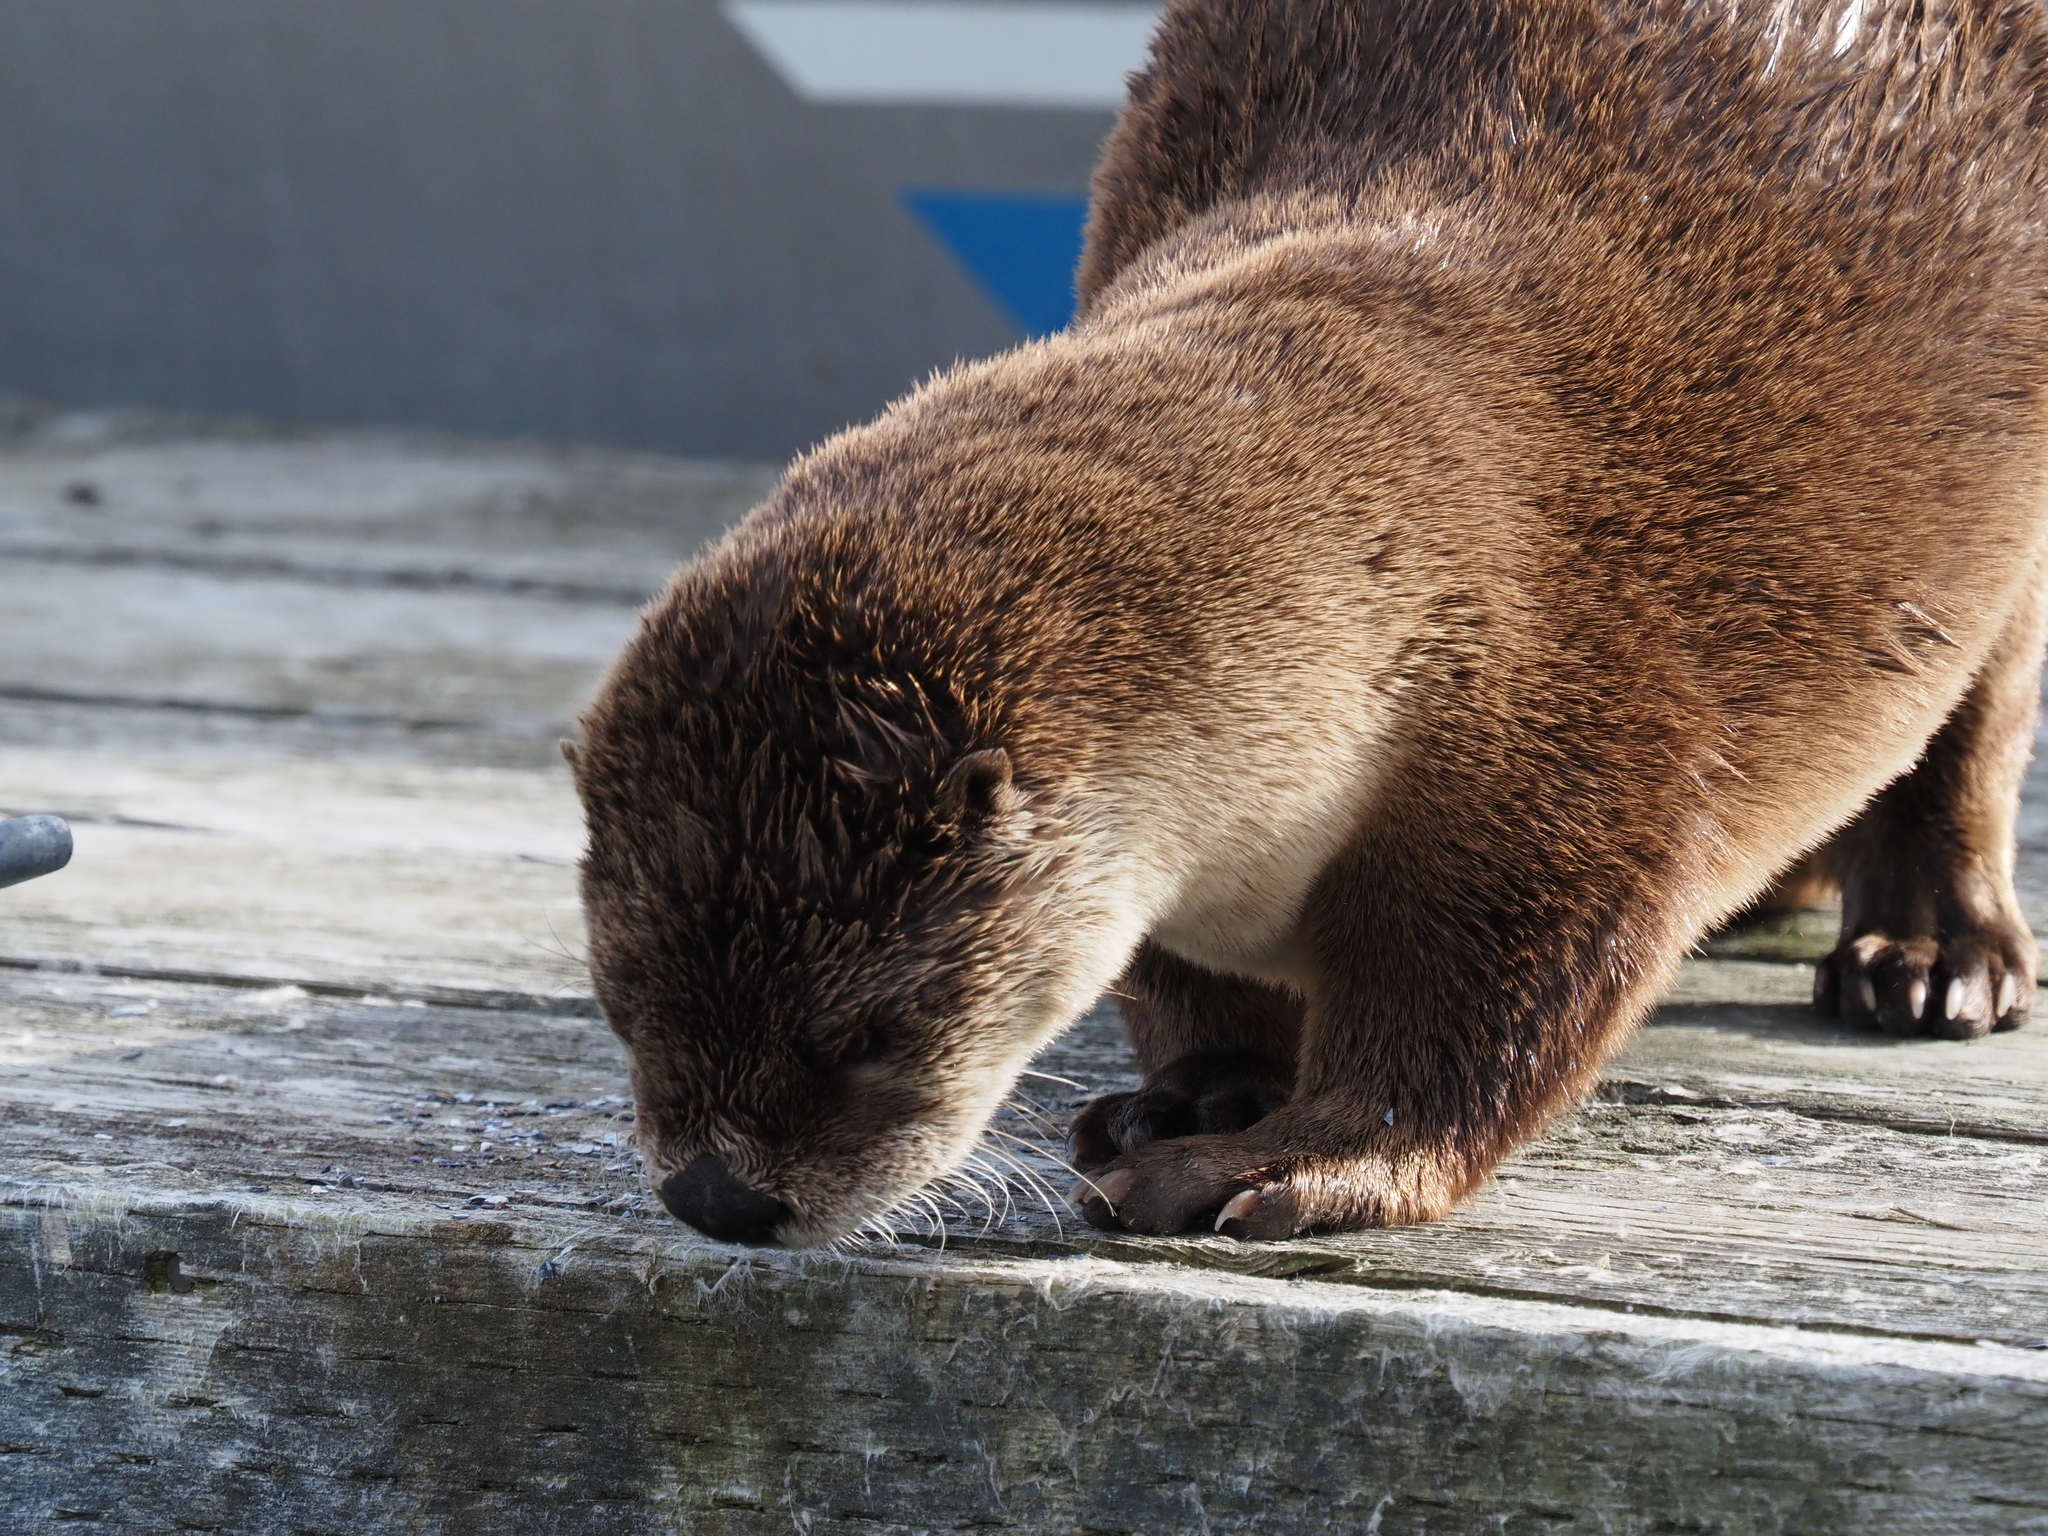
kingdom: Animalia
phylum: Chordata
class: Mammalia
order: Carnivora
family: Mustelidae
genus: Lontra
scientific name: Lontra canadensis
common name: North american river otter
